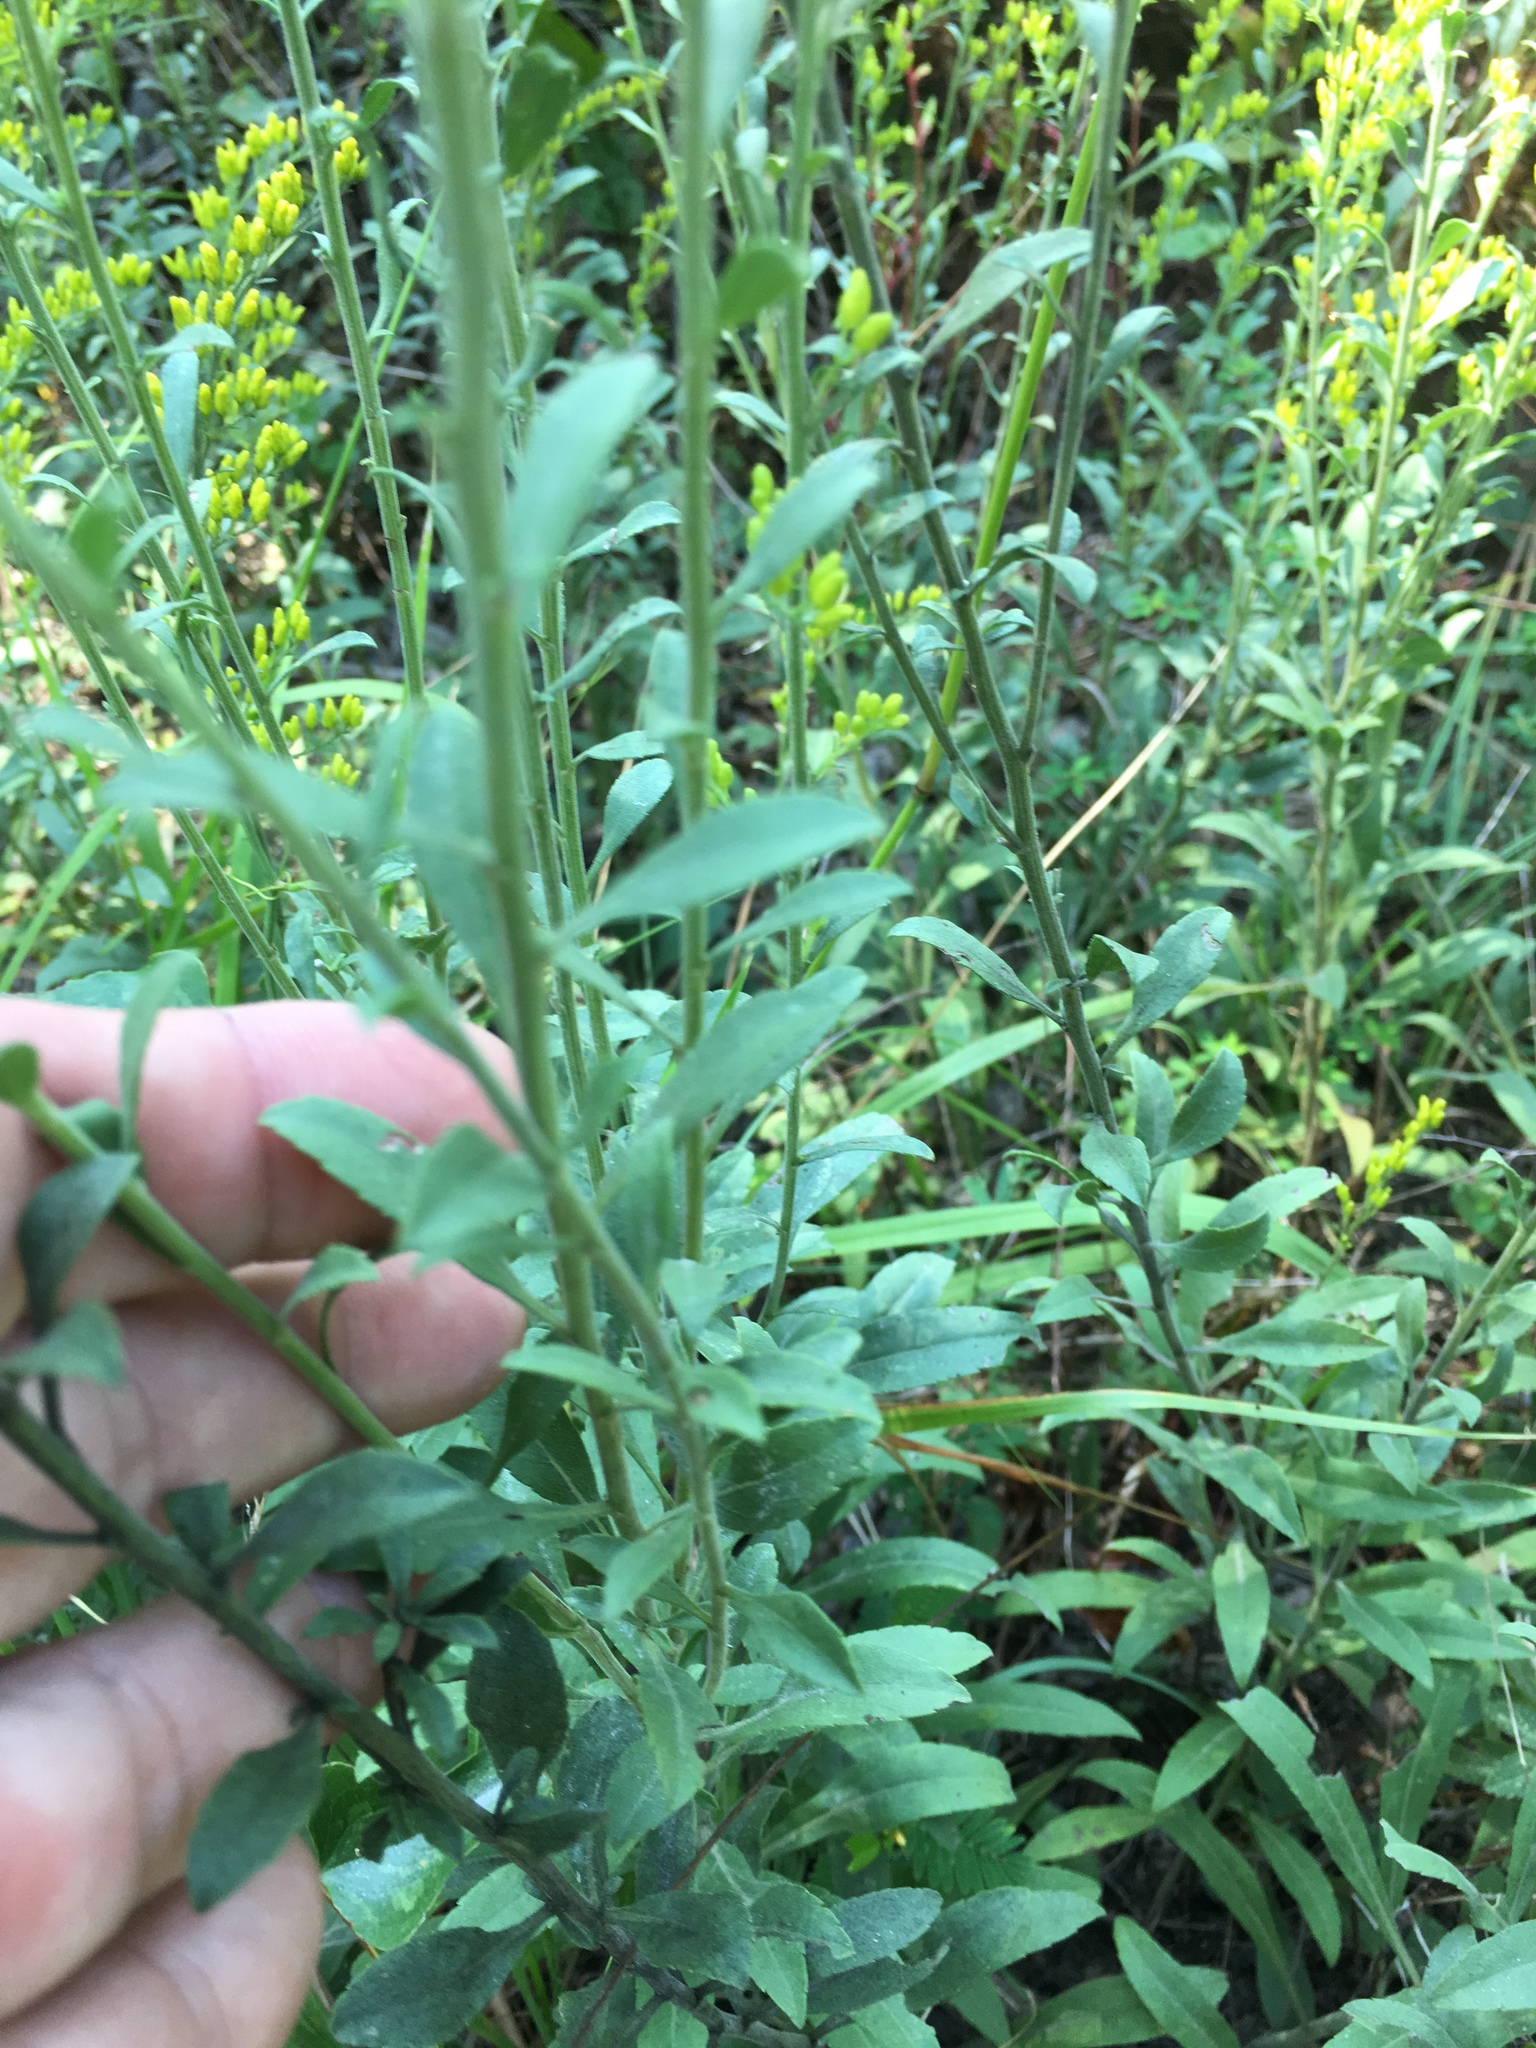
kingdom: Plantae
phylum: Tracheophyta
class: Magnoliopsida
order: Asterales
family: Asteraceae
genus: Solidago
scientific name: Solidago nemoralis
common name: Grey goldenrod
